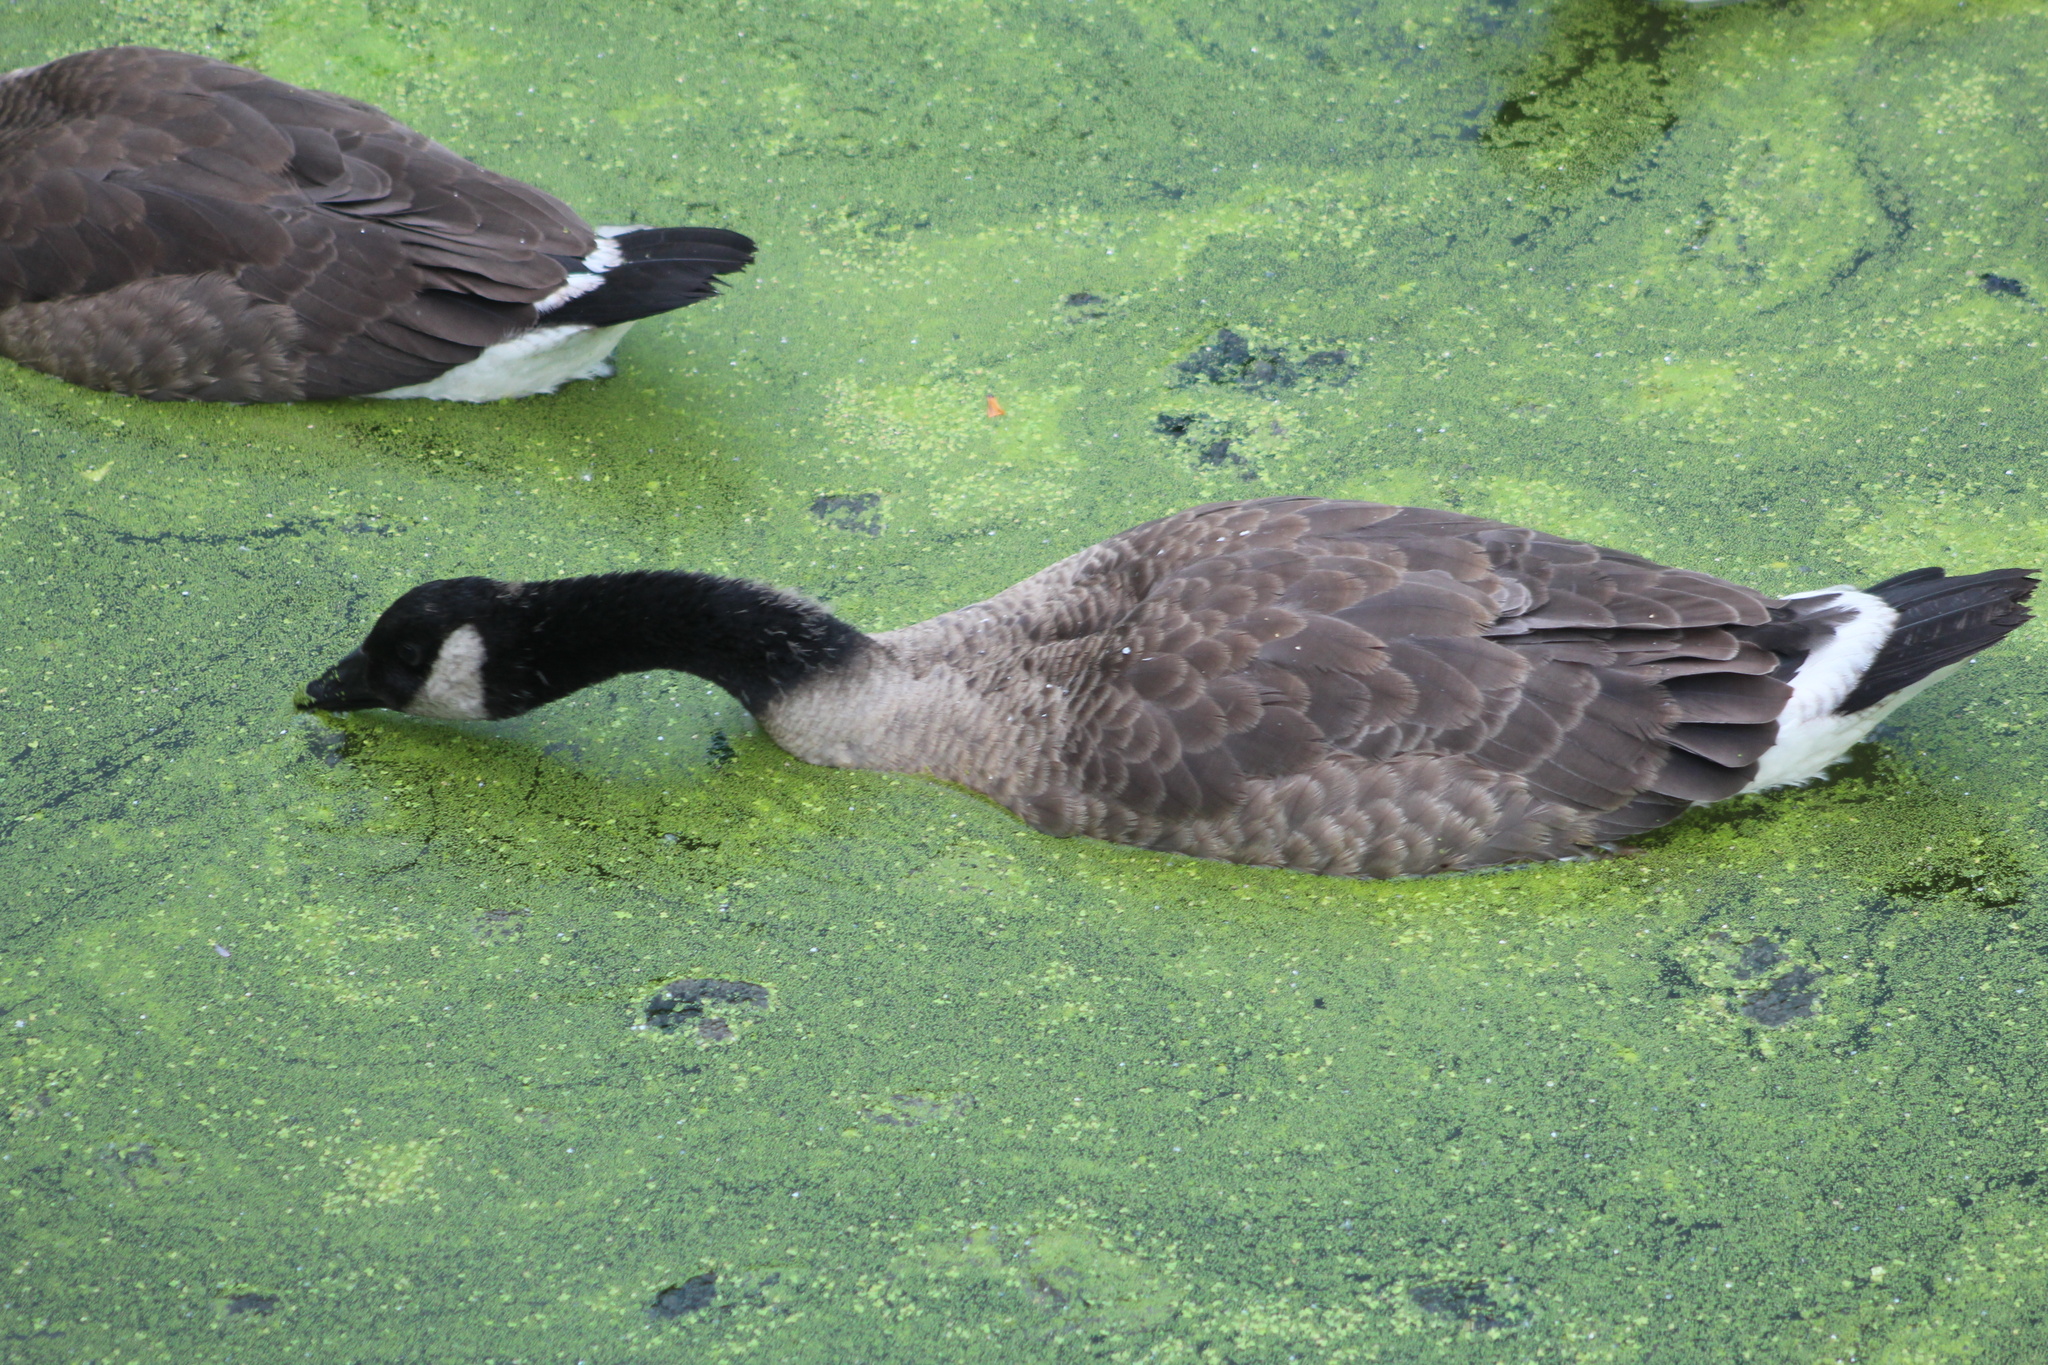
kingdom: Animalia
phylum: Chordata
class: Aves
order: Anseriformes
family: Anatidae
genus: Branta
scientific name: Branta canadensis
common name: Canada goose
